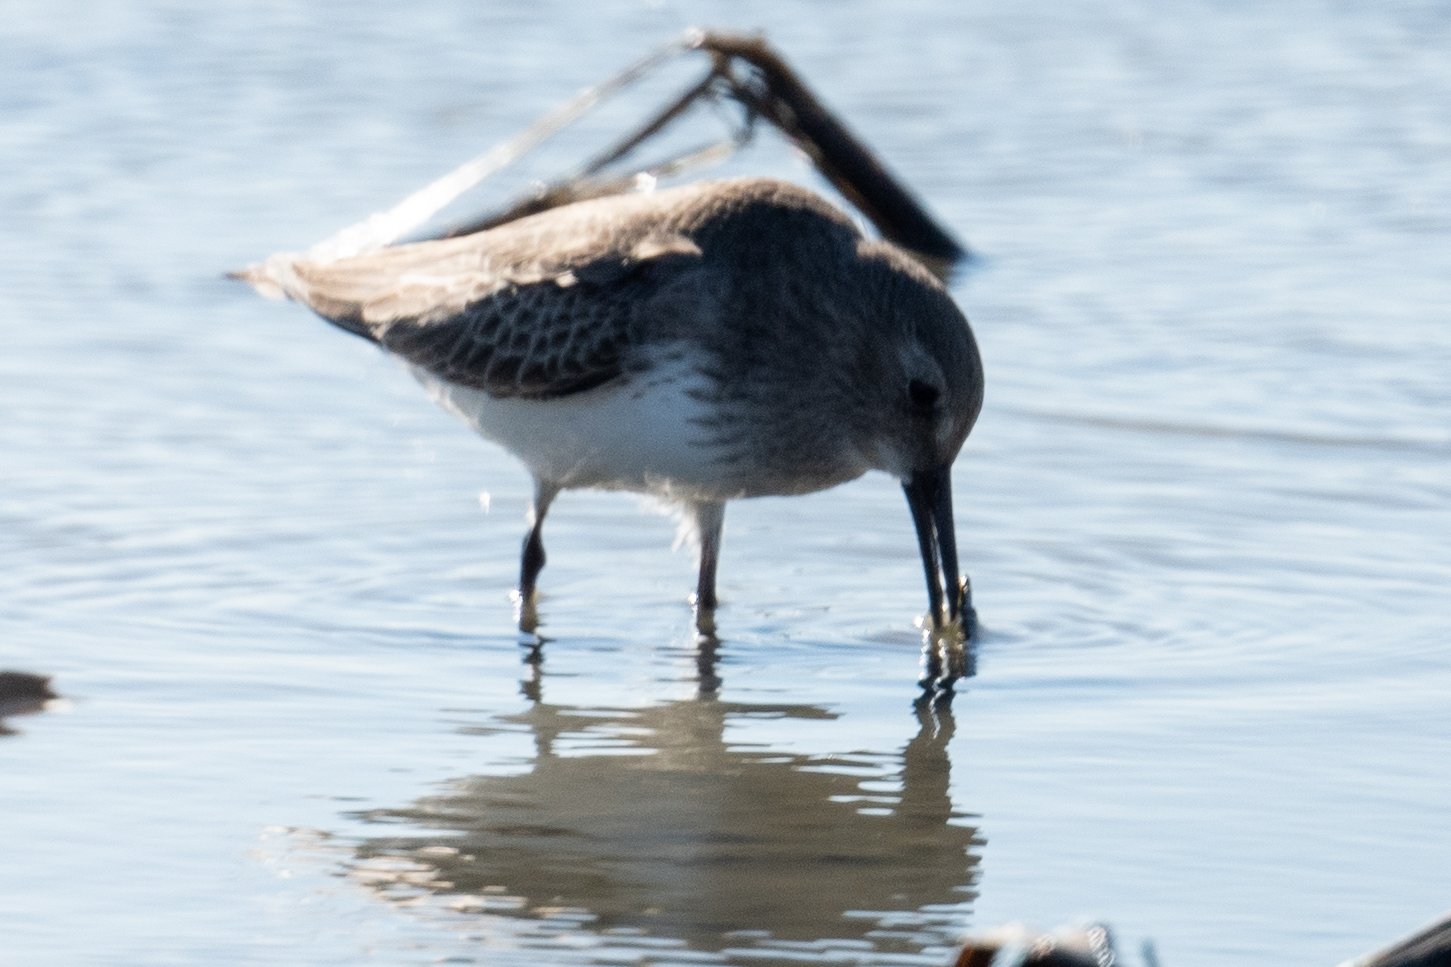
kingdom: Animalia
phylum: Chordata
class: Aves
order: Charadriiformes
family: Scolopacidae
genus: Calidris
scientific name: Calidris alpina
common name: Dunlin
